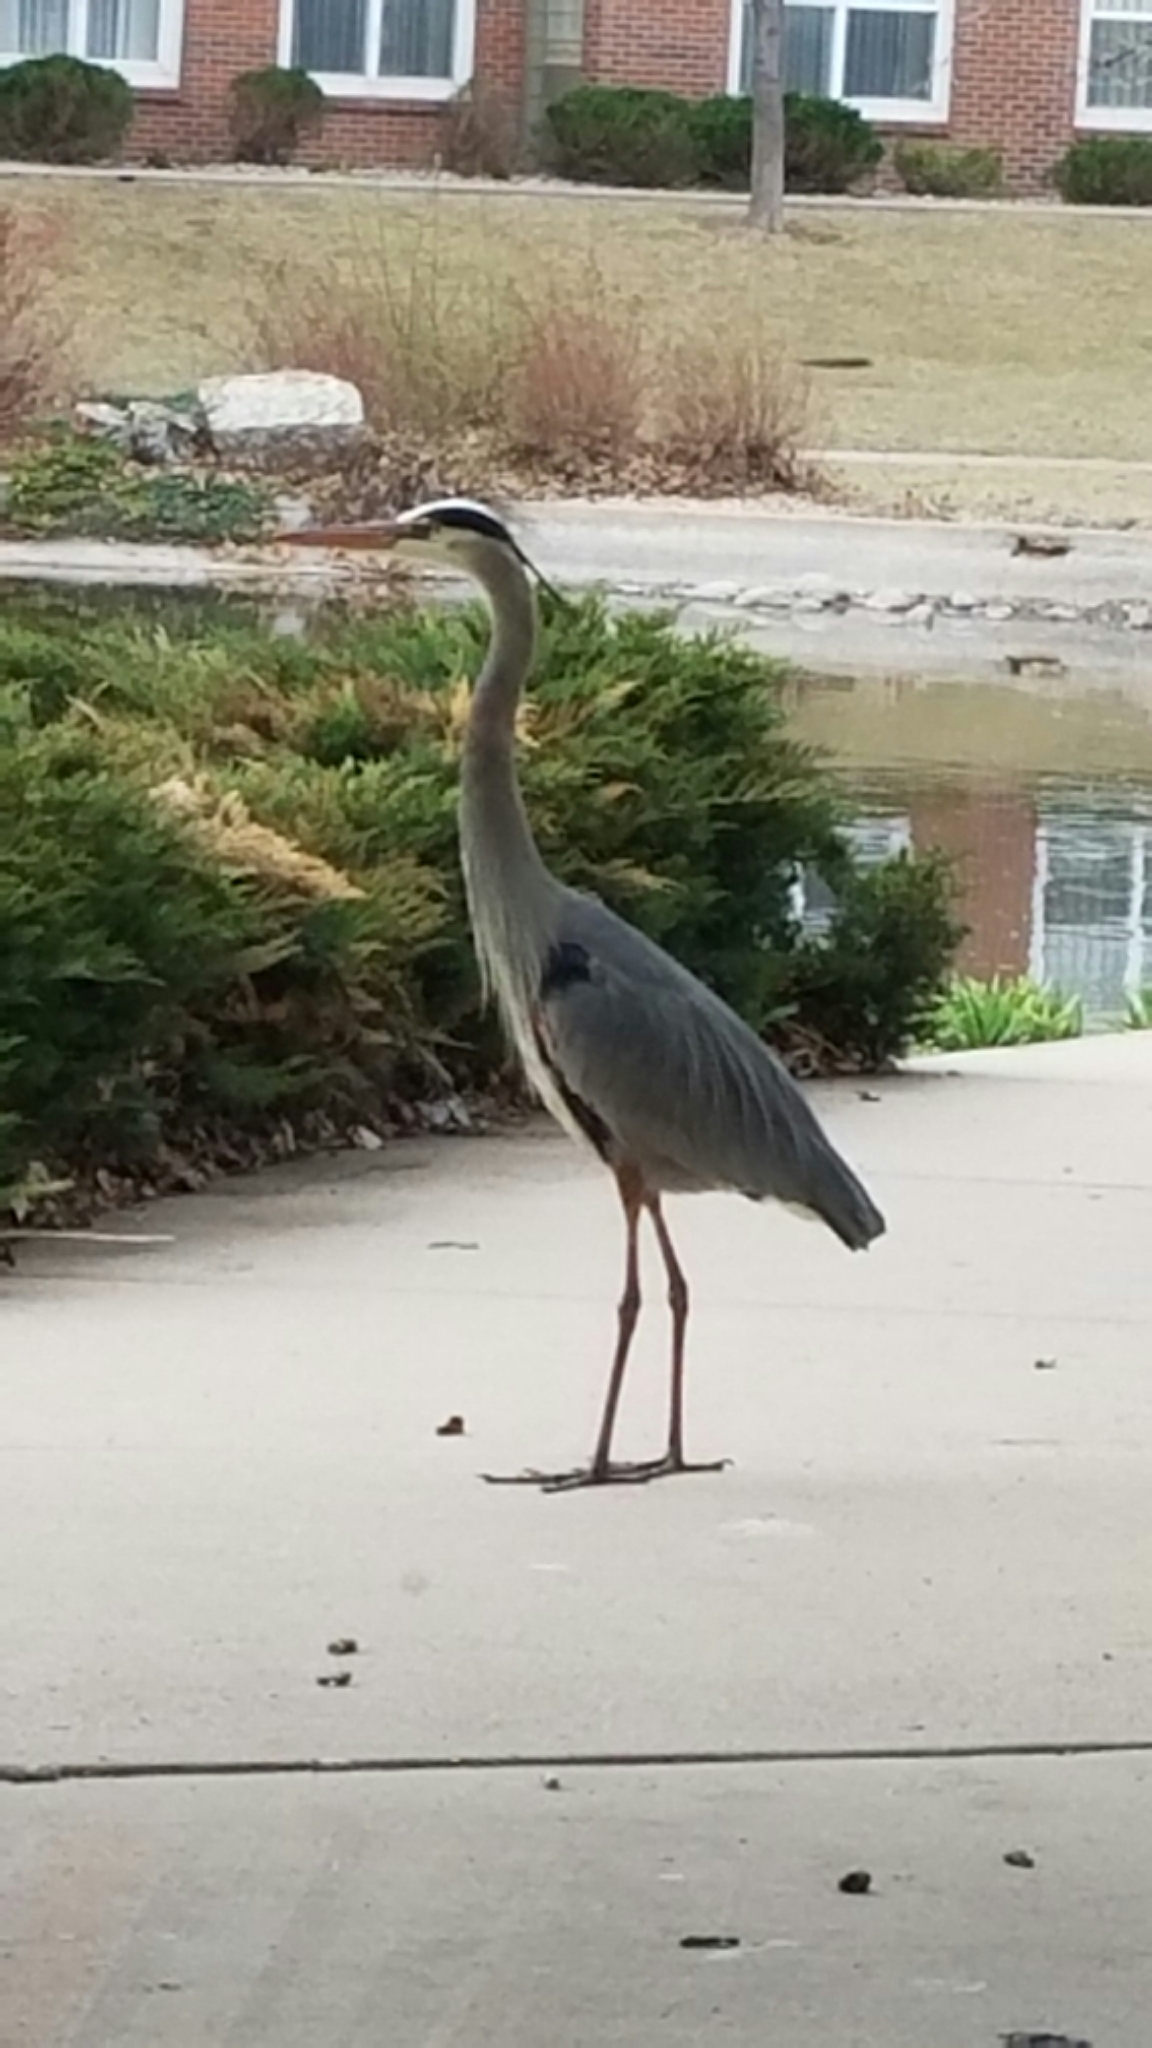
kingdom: Animalia
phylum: Chordata
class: Aves
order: Pelecaniformes
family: Ardeidae
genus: Ardea
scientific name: Ardea herodias
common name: Great blue heron
